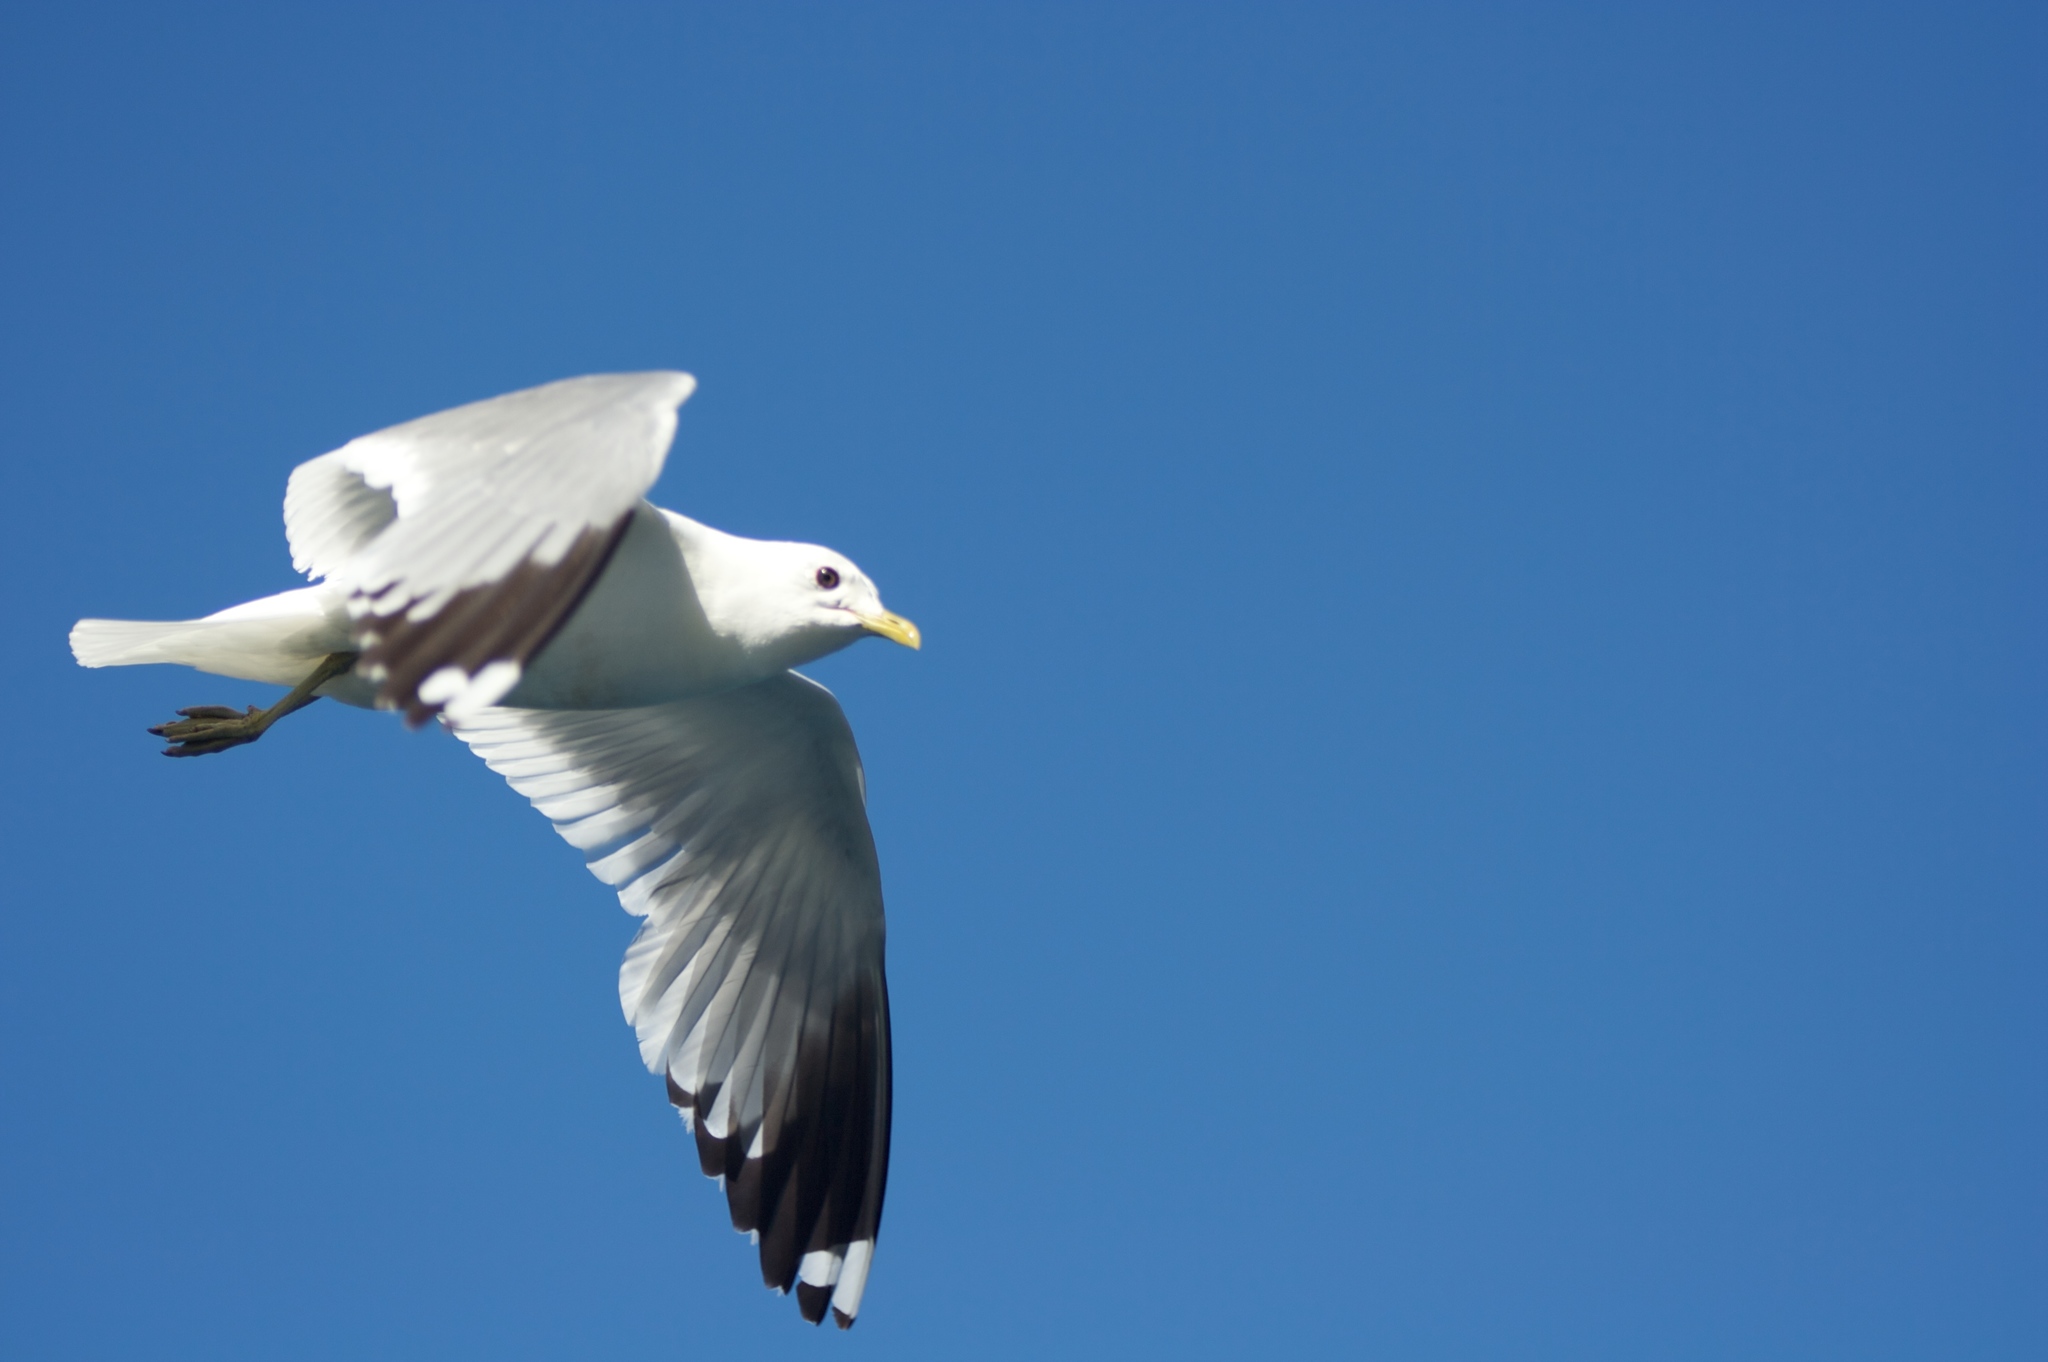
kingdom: Animalia
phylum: Chordata
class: Aves
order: Charadriiformes
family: Laridae
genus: Larus
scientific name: Larus canus
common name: Mew gull
